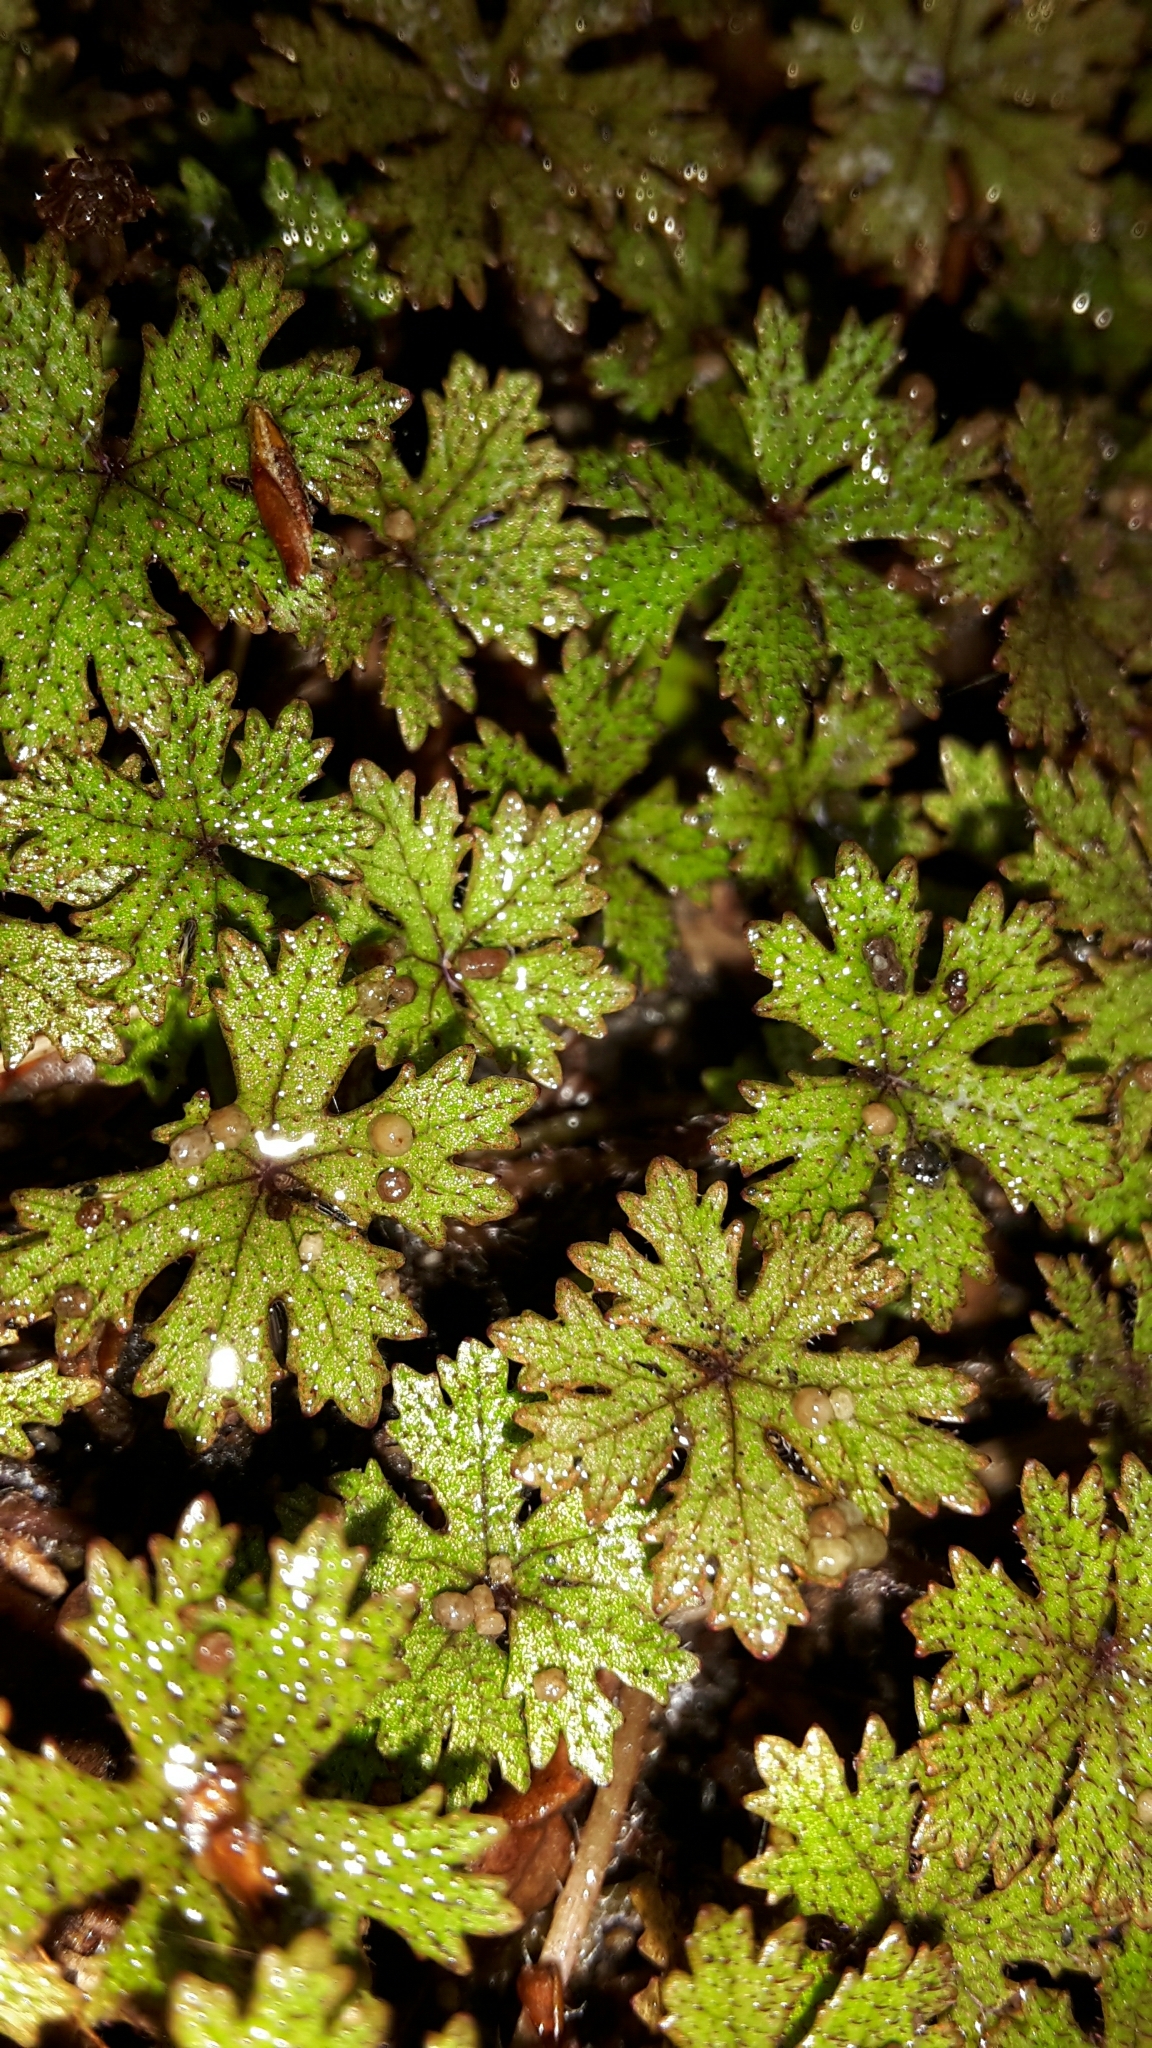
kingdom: Plantae
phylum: Tracheophyta
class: Magnoliopsida
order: Apiales
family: Araliaceae
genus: Hydrocotyle
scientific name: Hydrocotyle dissecta
